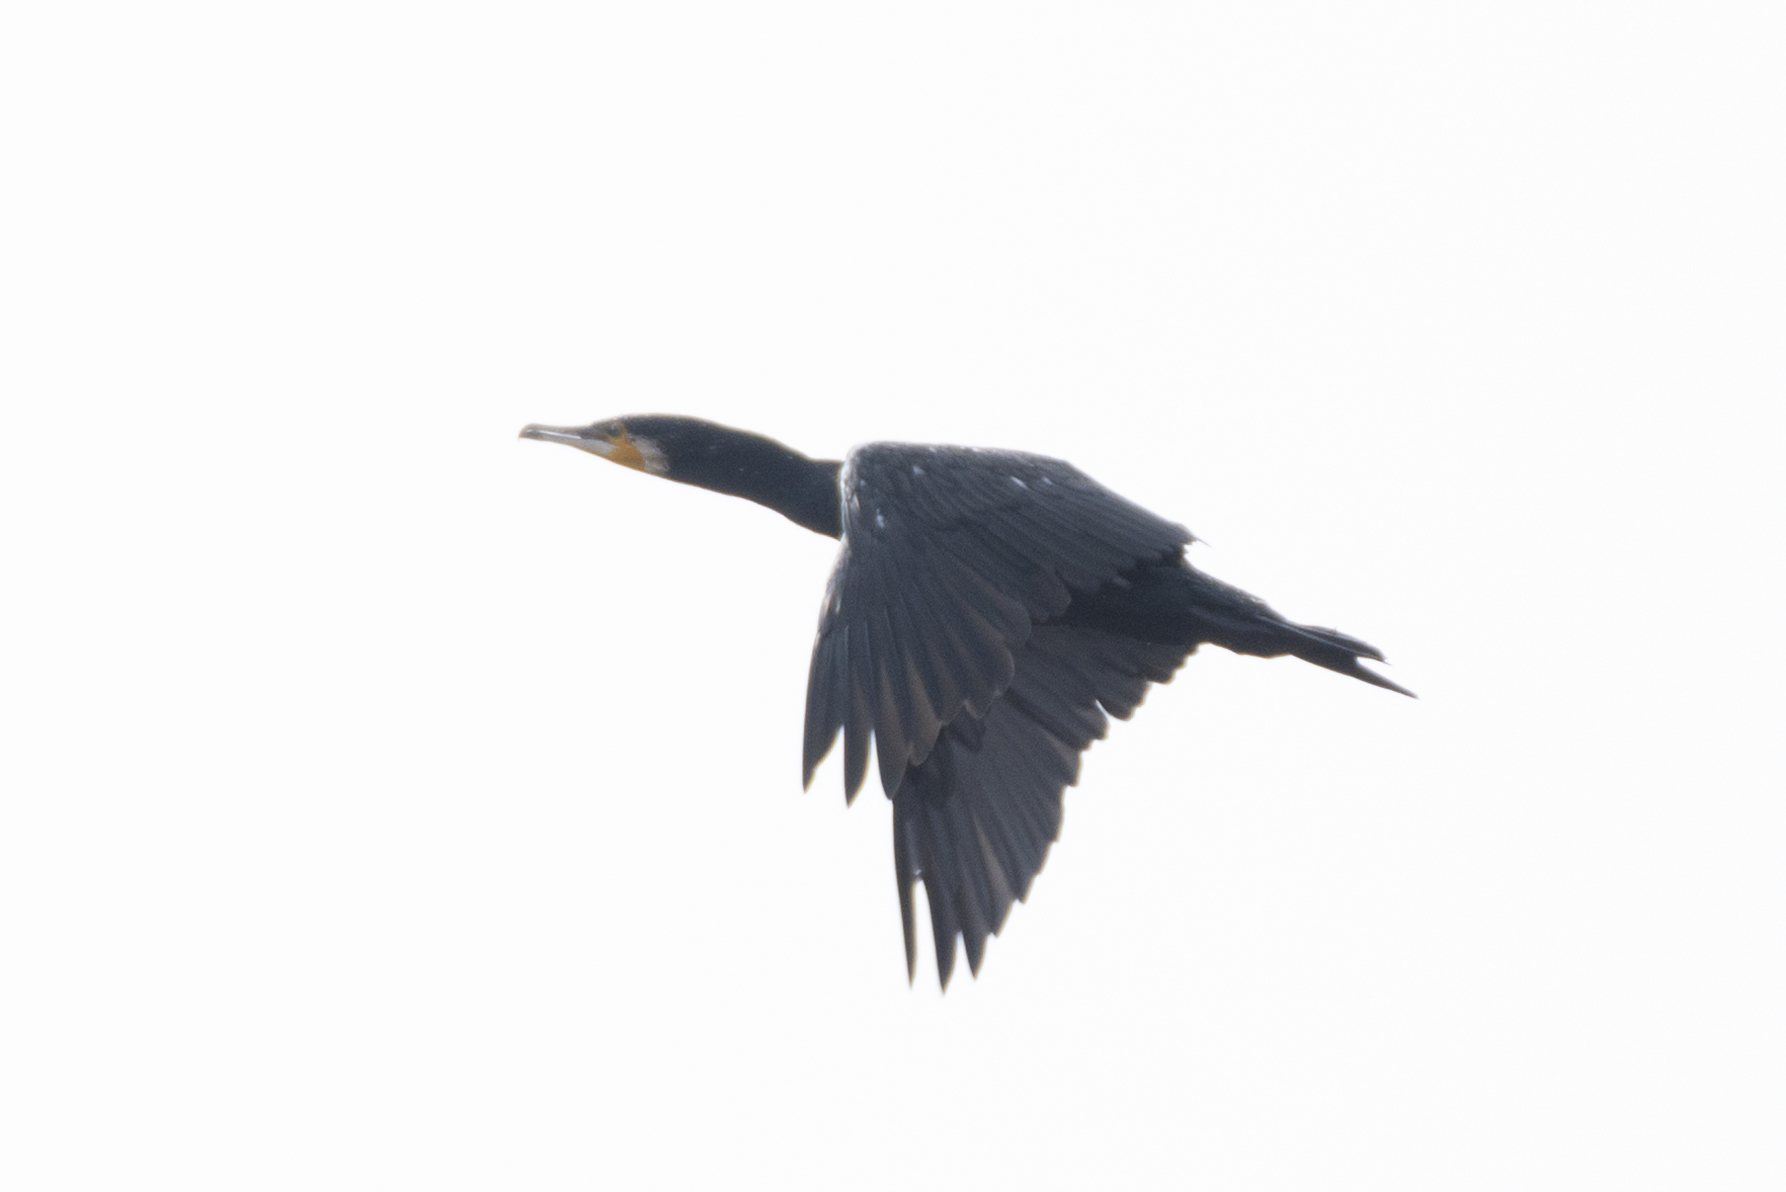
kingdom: Animalia
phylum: Chordata
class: Aves
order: Suliformes
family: Phalacrocoracidae
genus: Phalacrocorax
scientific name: Phalacrocorax carbo
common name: Great cormorant
